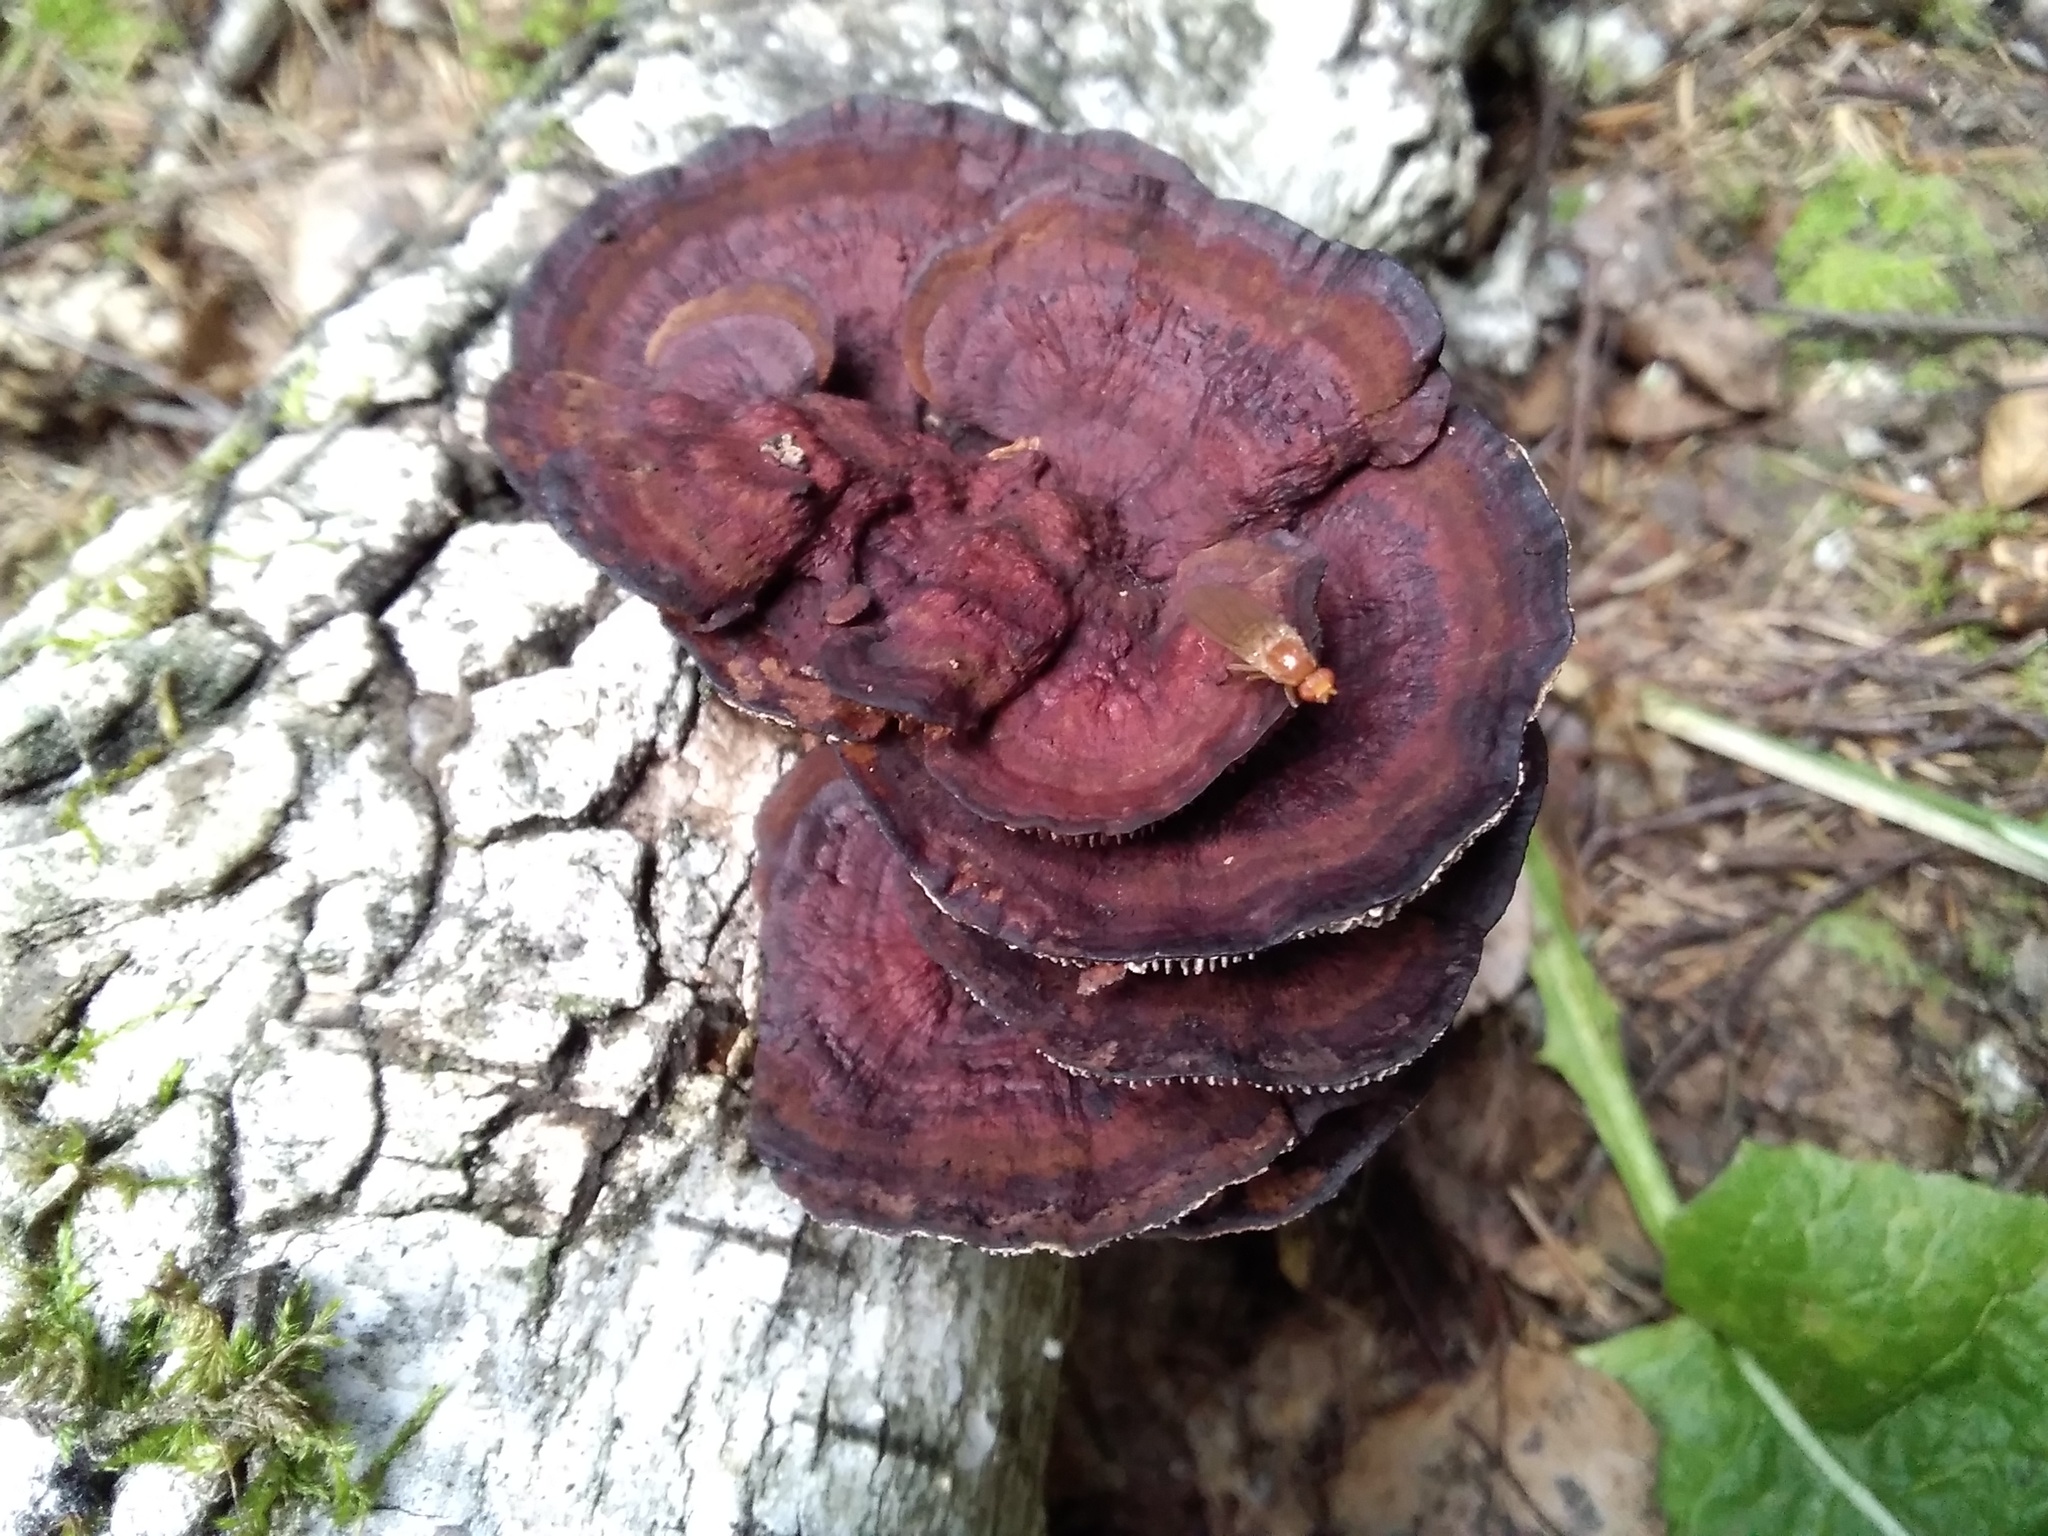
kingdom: Fungi
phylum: Basidiomycota
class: Agaricomycetes
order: Polyporales
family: Polyporaceae
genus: Daedaleopsis
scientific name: Daedaleopsis tricolor
